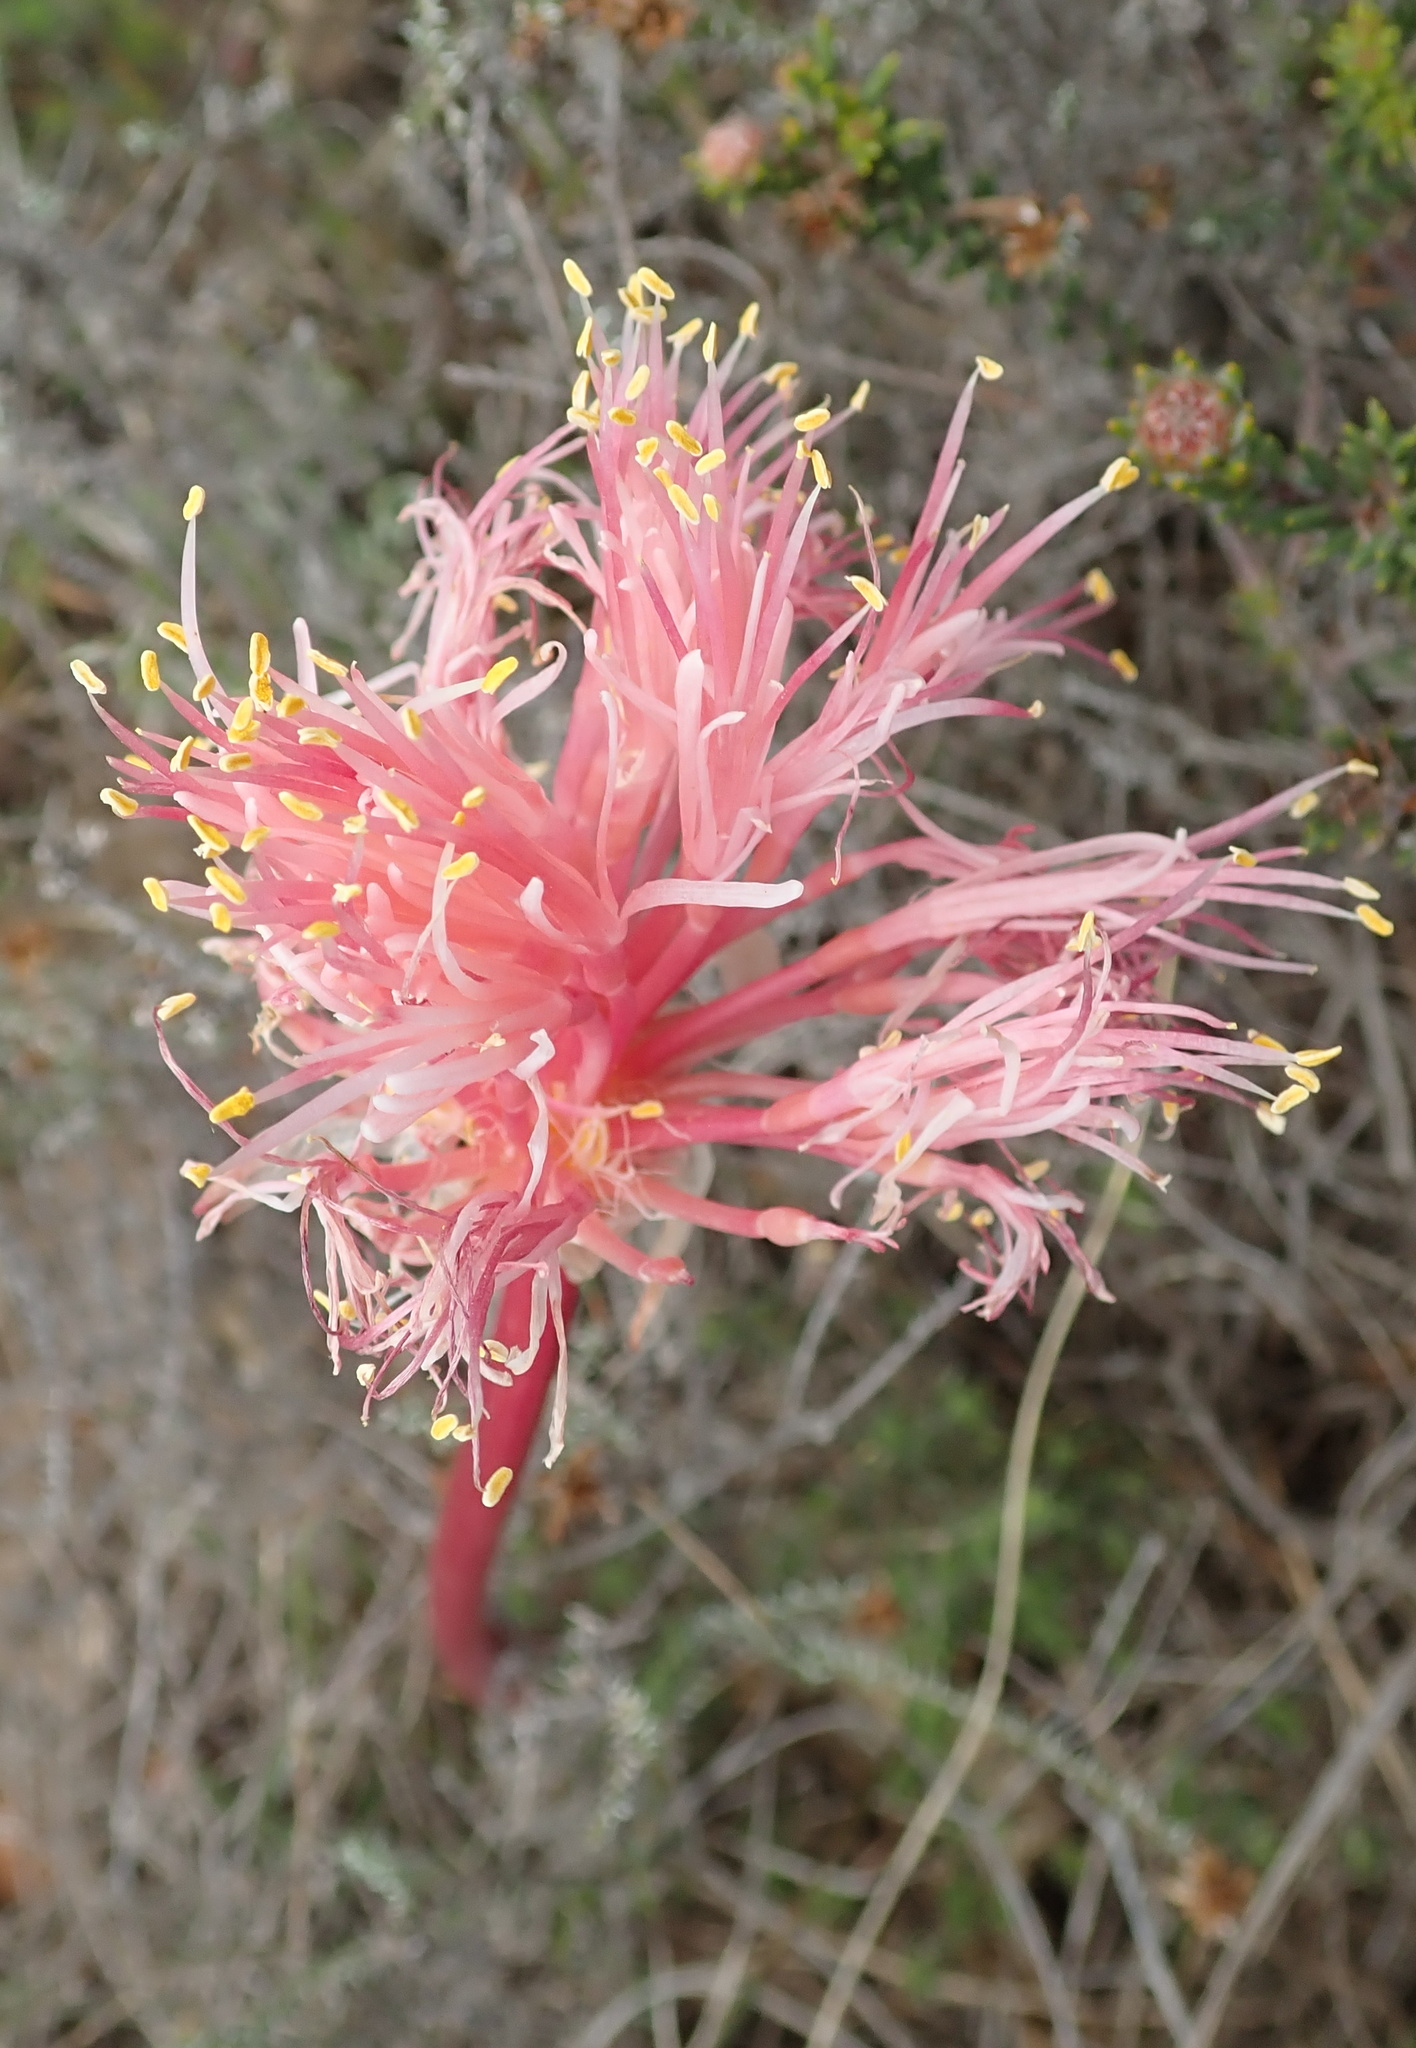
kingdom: Plantae
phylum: Tracheophyta
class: Liliopsida
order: Asparagales
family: Amaryllidaceae
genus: Haemanthus
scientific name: Haemanthus sanguineus
